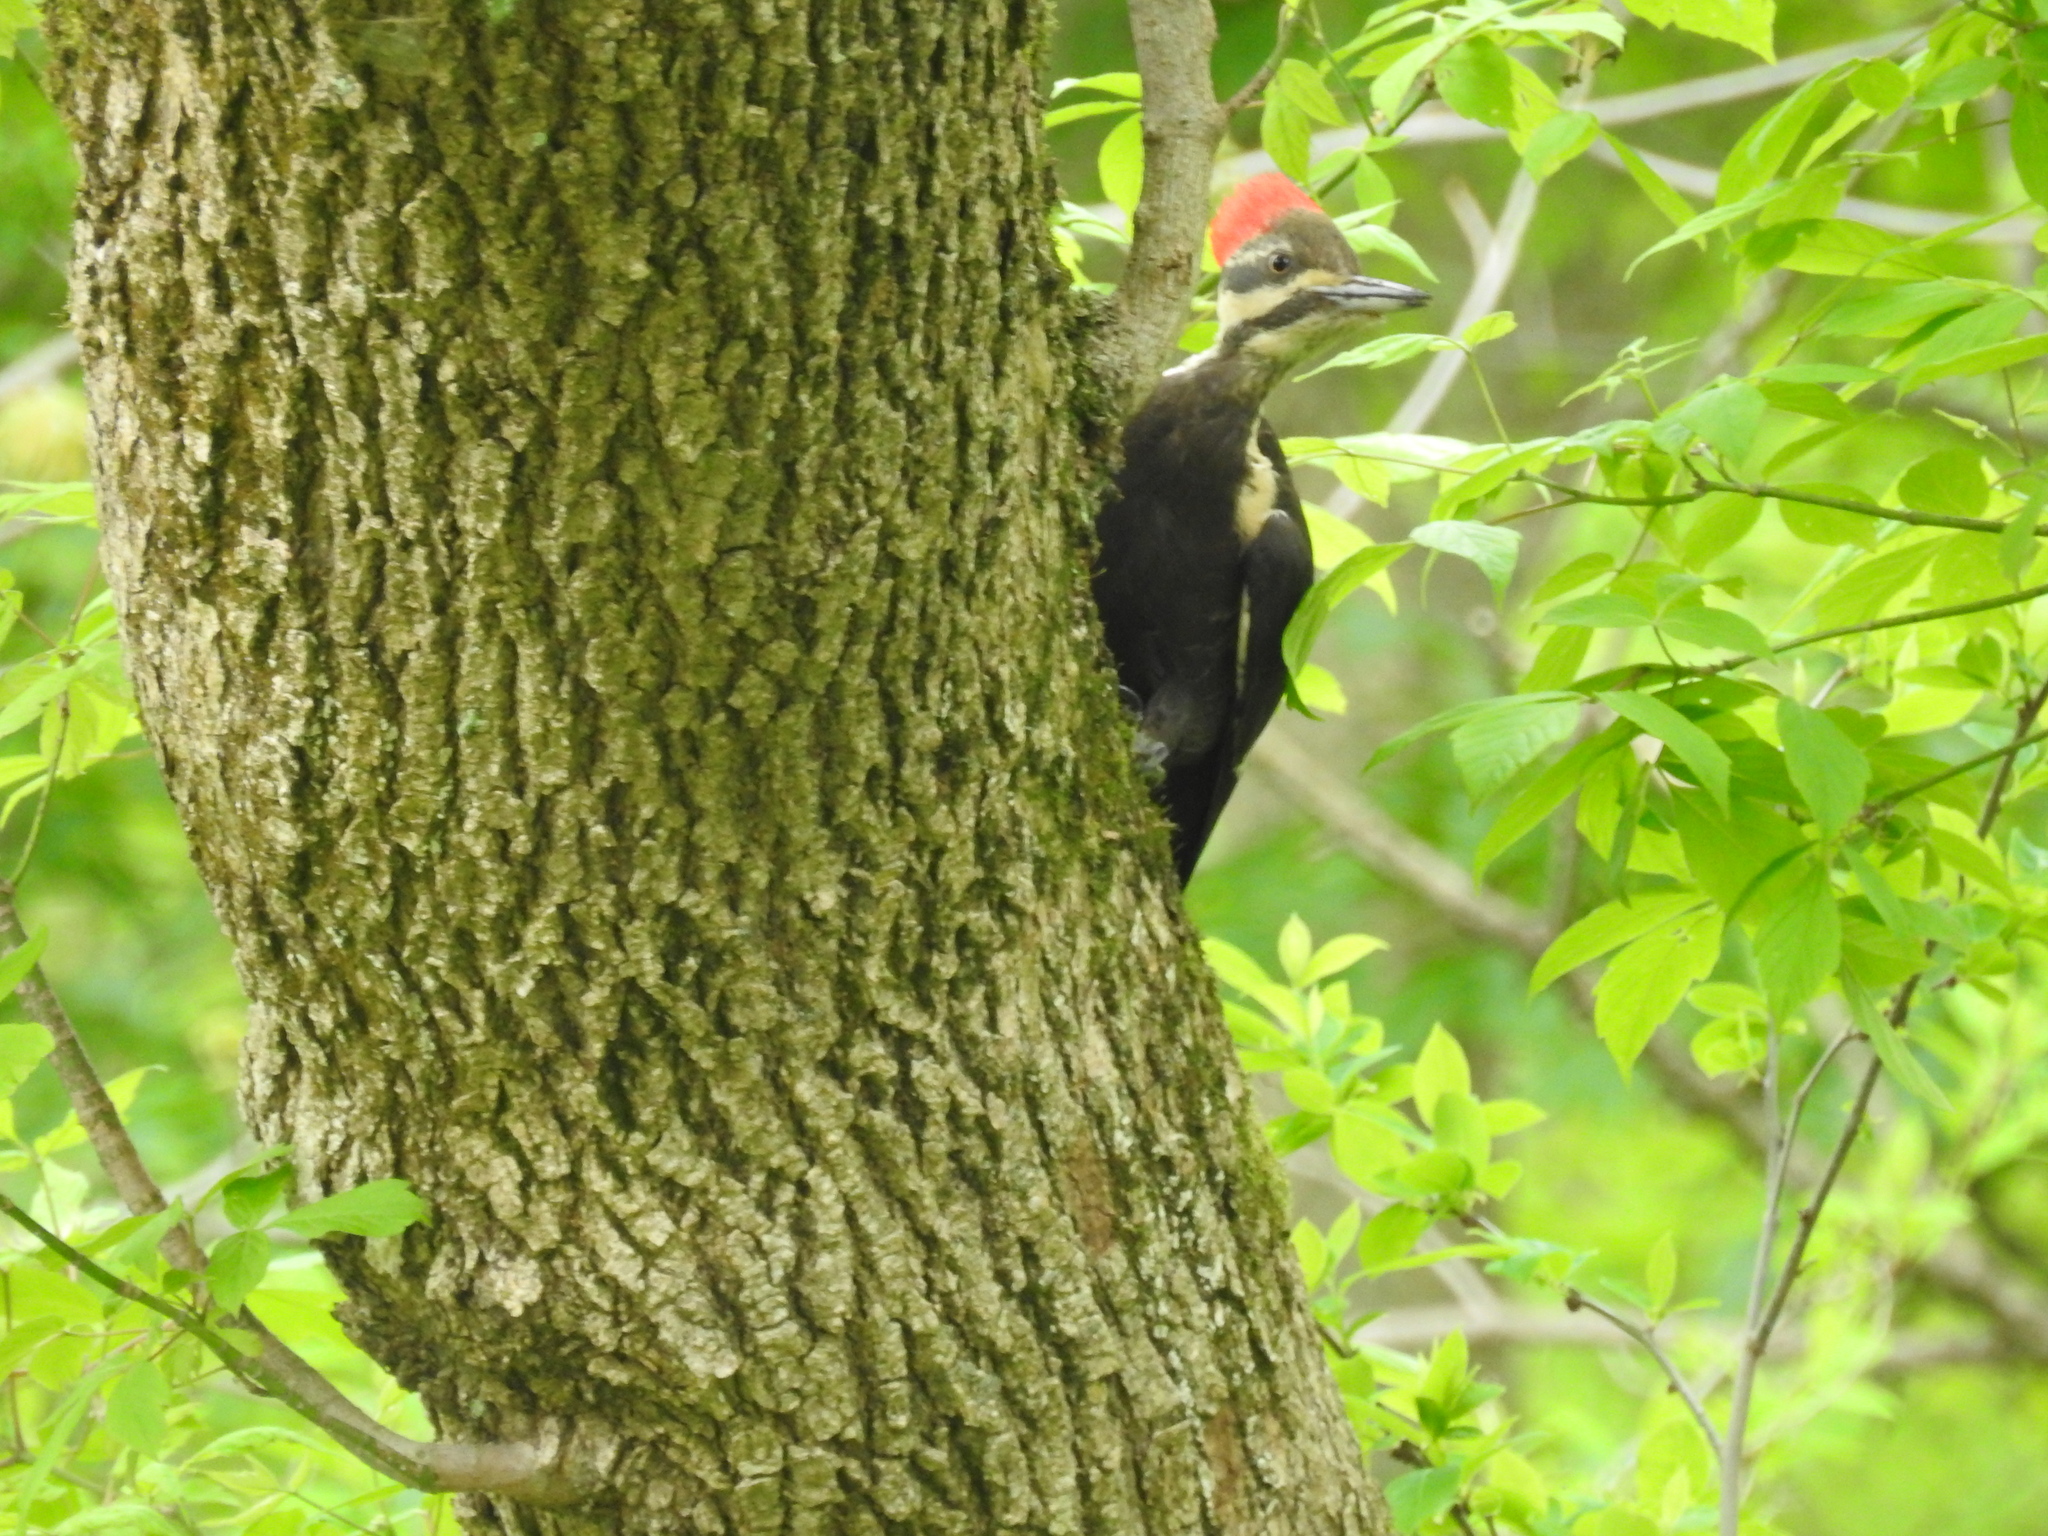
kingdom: Animalia
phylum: Chordata
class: Aves
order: Piciformes
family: Picidae
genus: Dryocopus
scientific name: Dryocopus pileatus
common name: Pileated woodpecker
